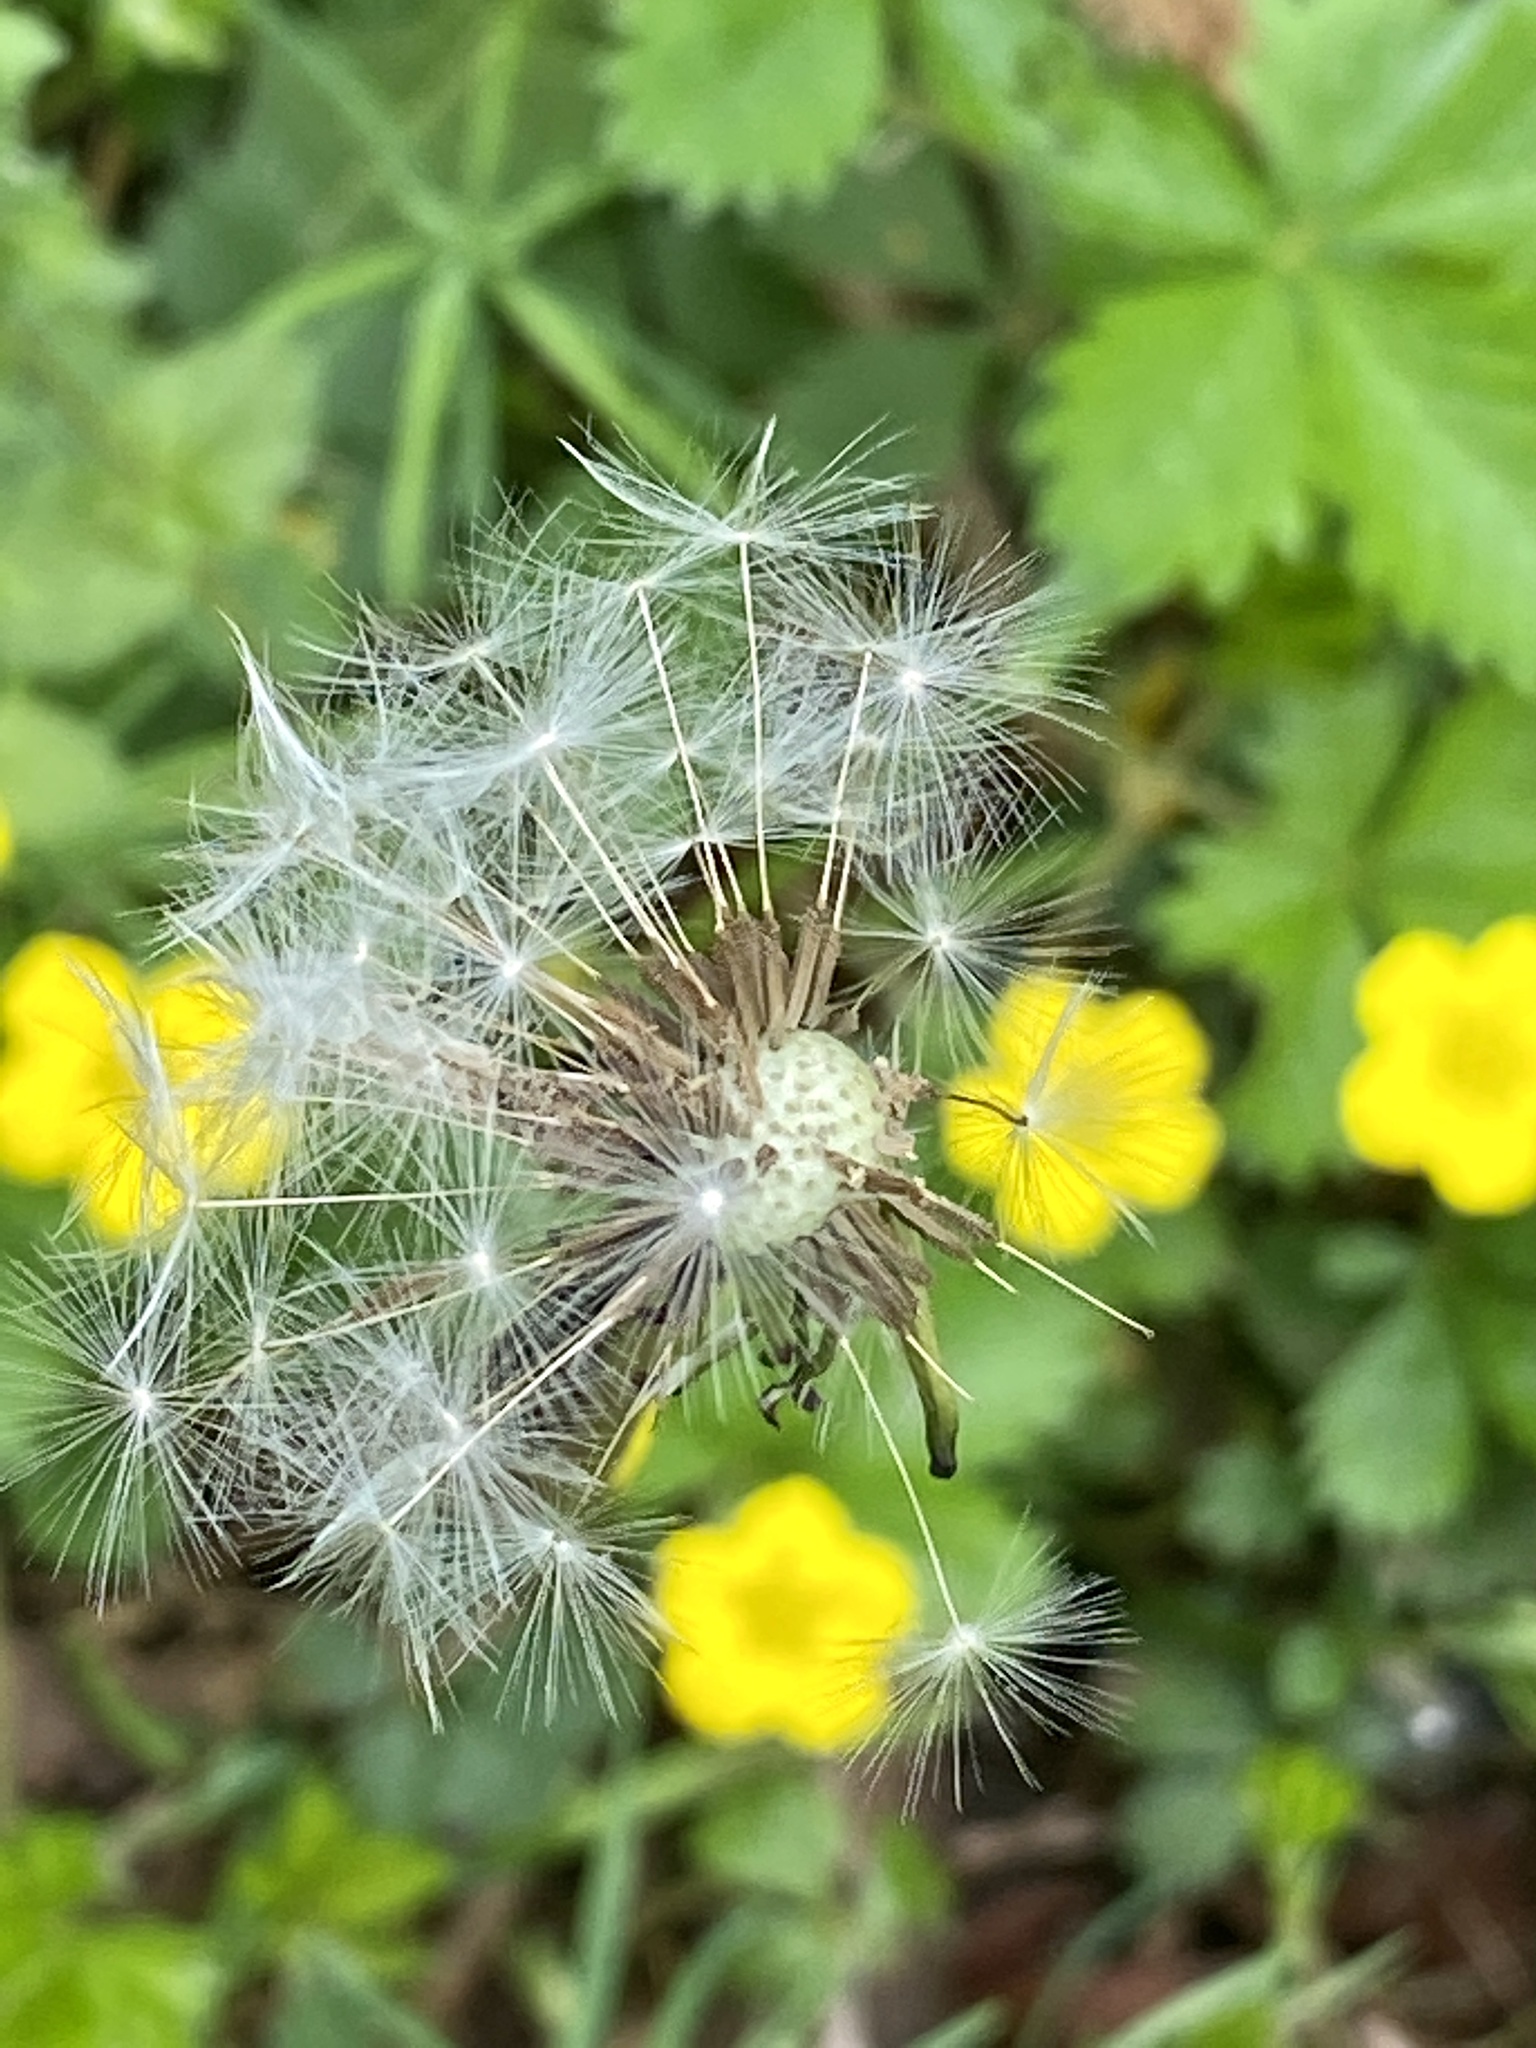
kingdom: Plantae
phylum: Tracheophyta
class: Magnoliopsida
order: Asterales
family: Asteraceae
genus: Taraxacum
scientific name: Taraxacum officinale
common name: Common dandelion
